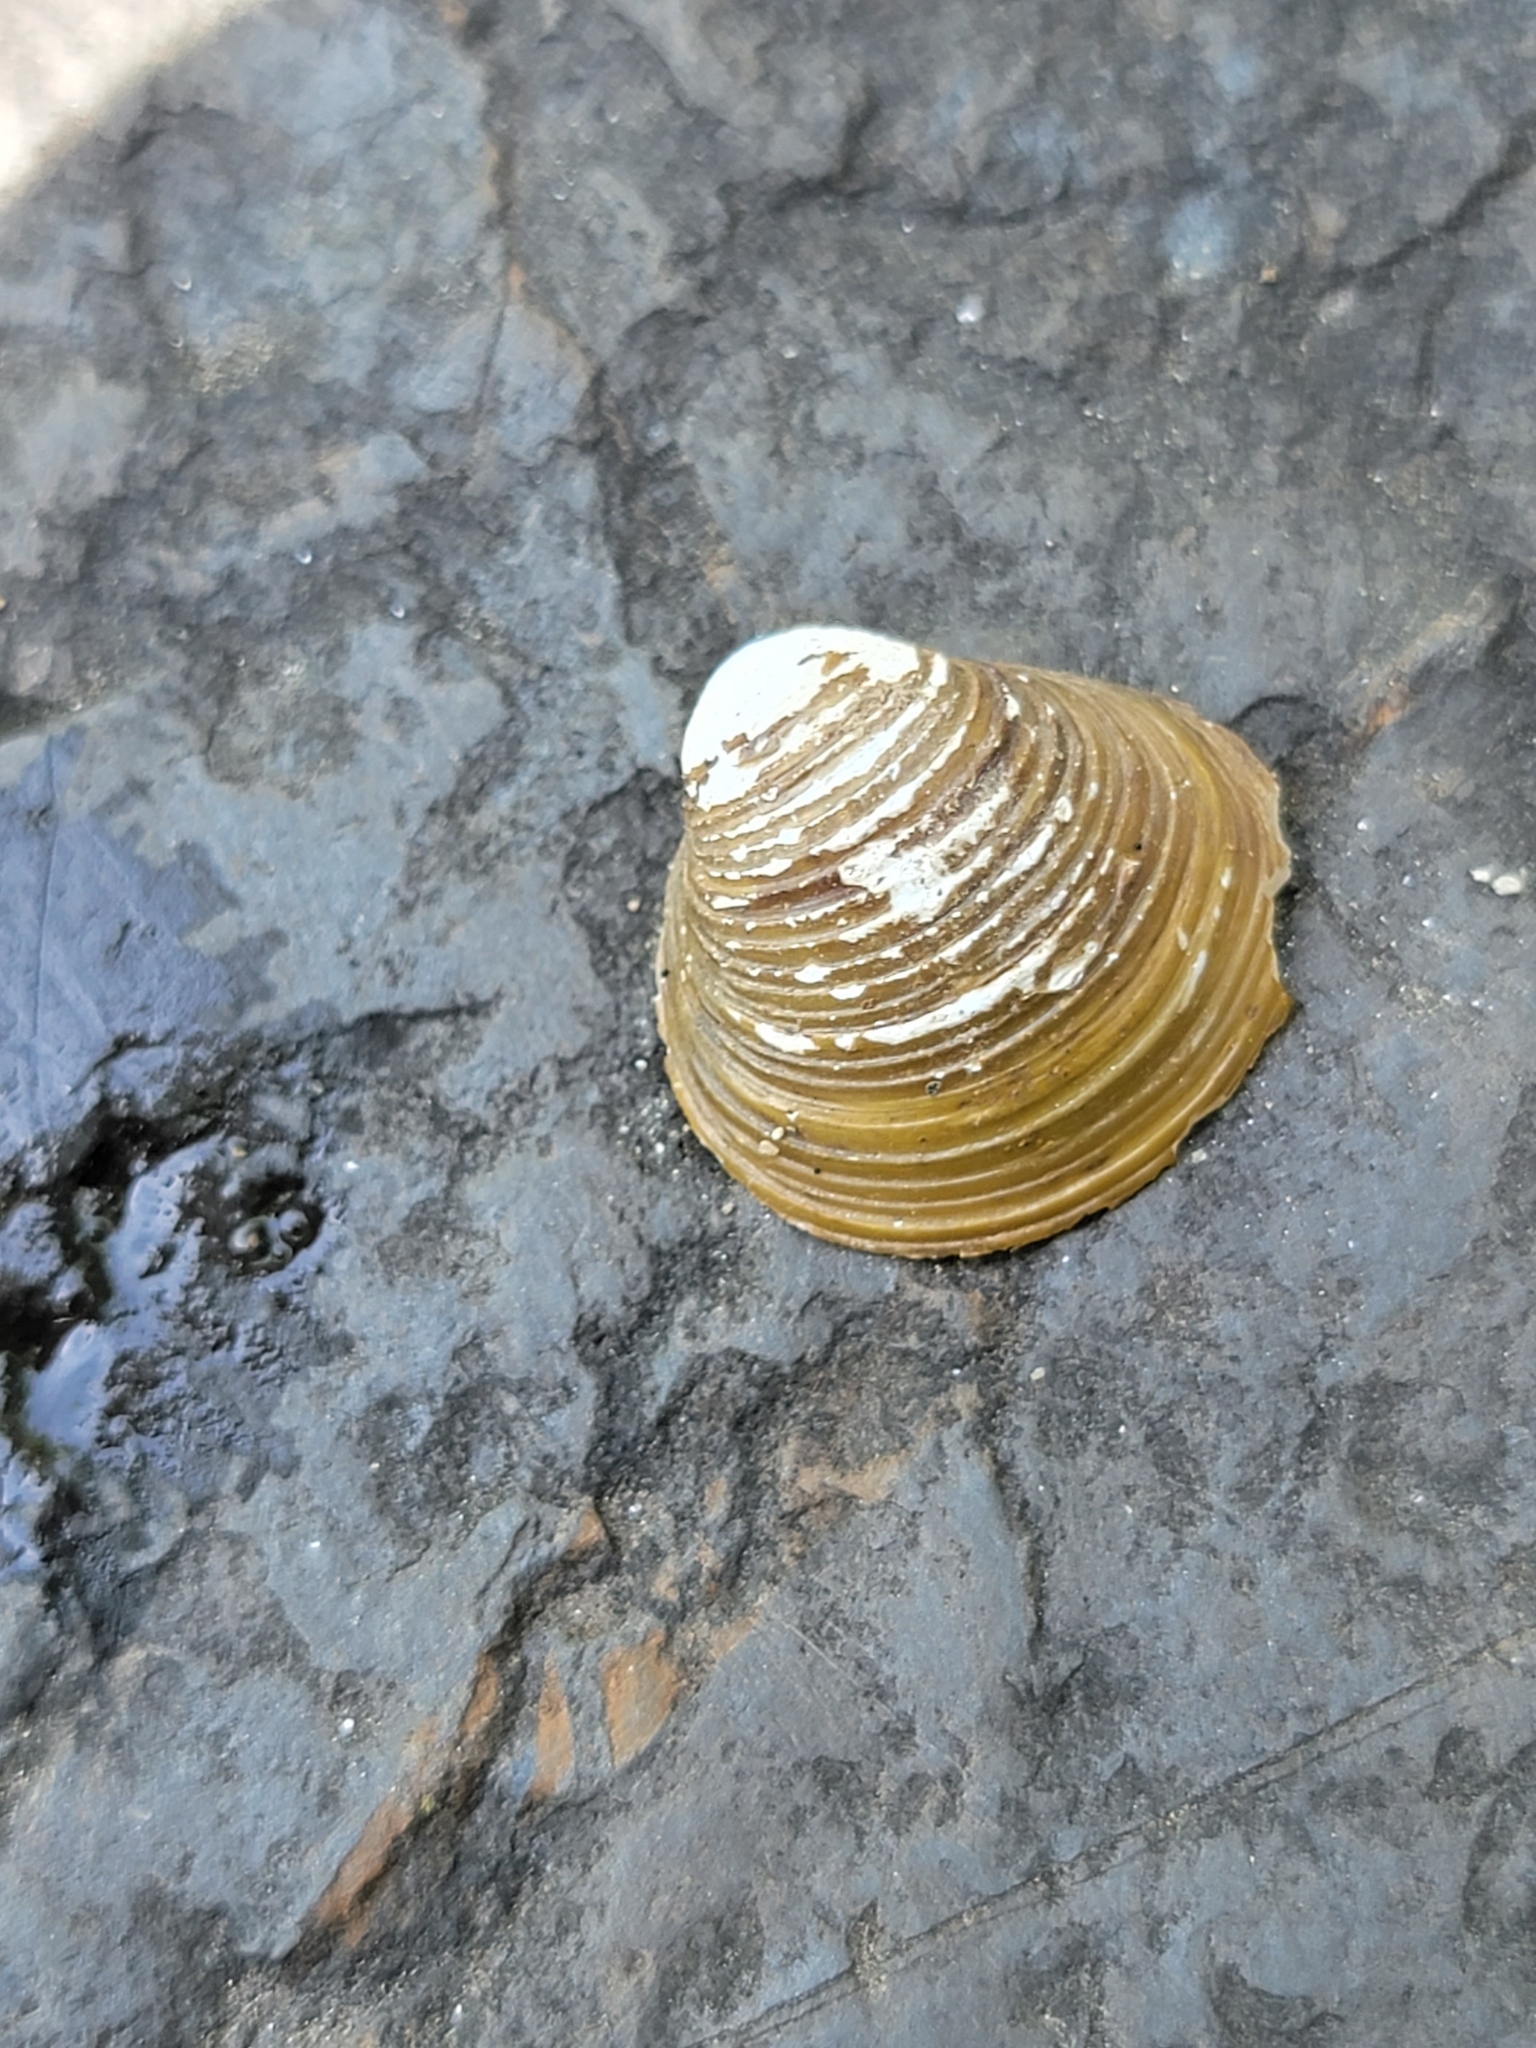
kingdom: Animalia
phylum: Mollusca
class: Bivalvia
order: Venerida
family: Cyrenidae
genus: Corbicula
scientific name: Corbicula fluminea
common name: Asian clam
